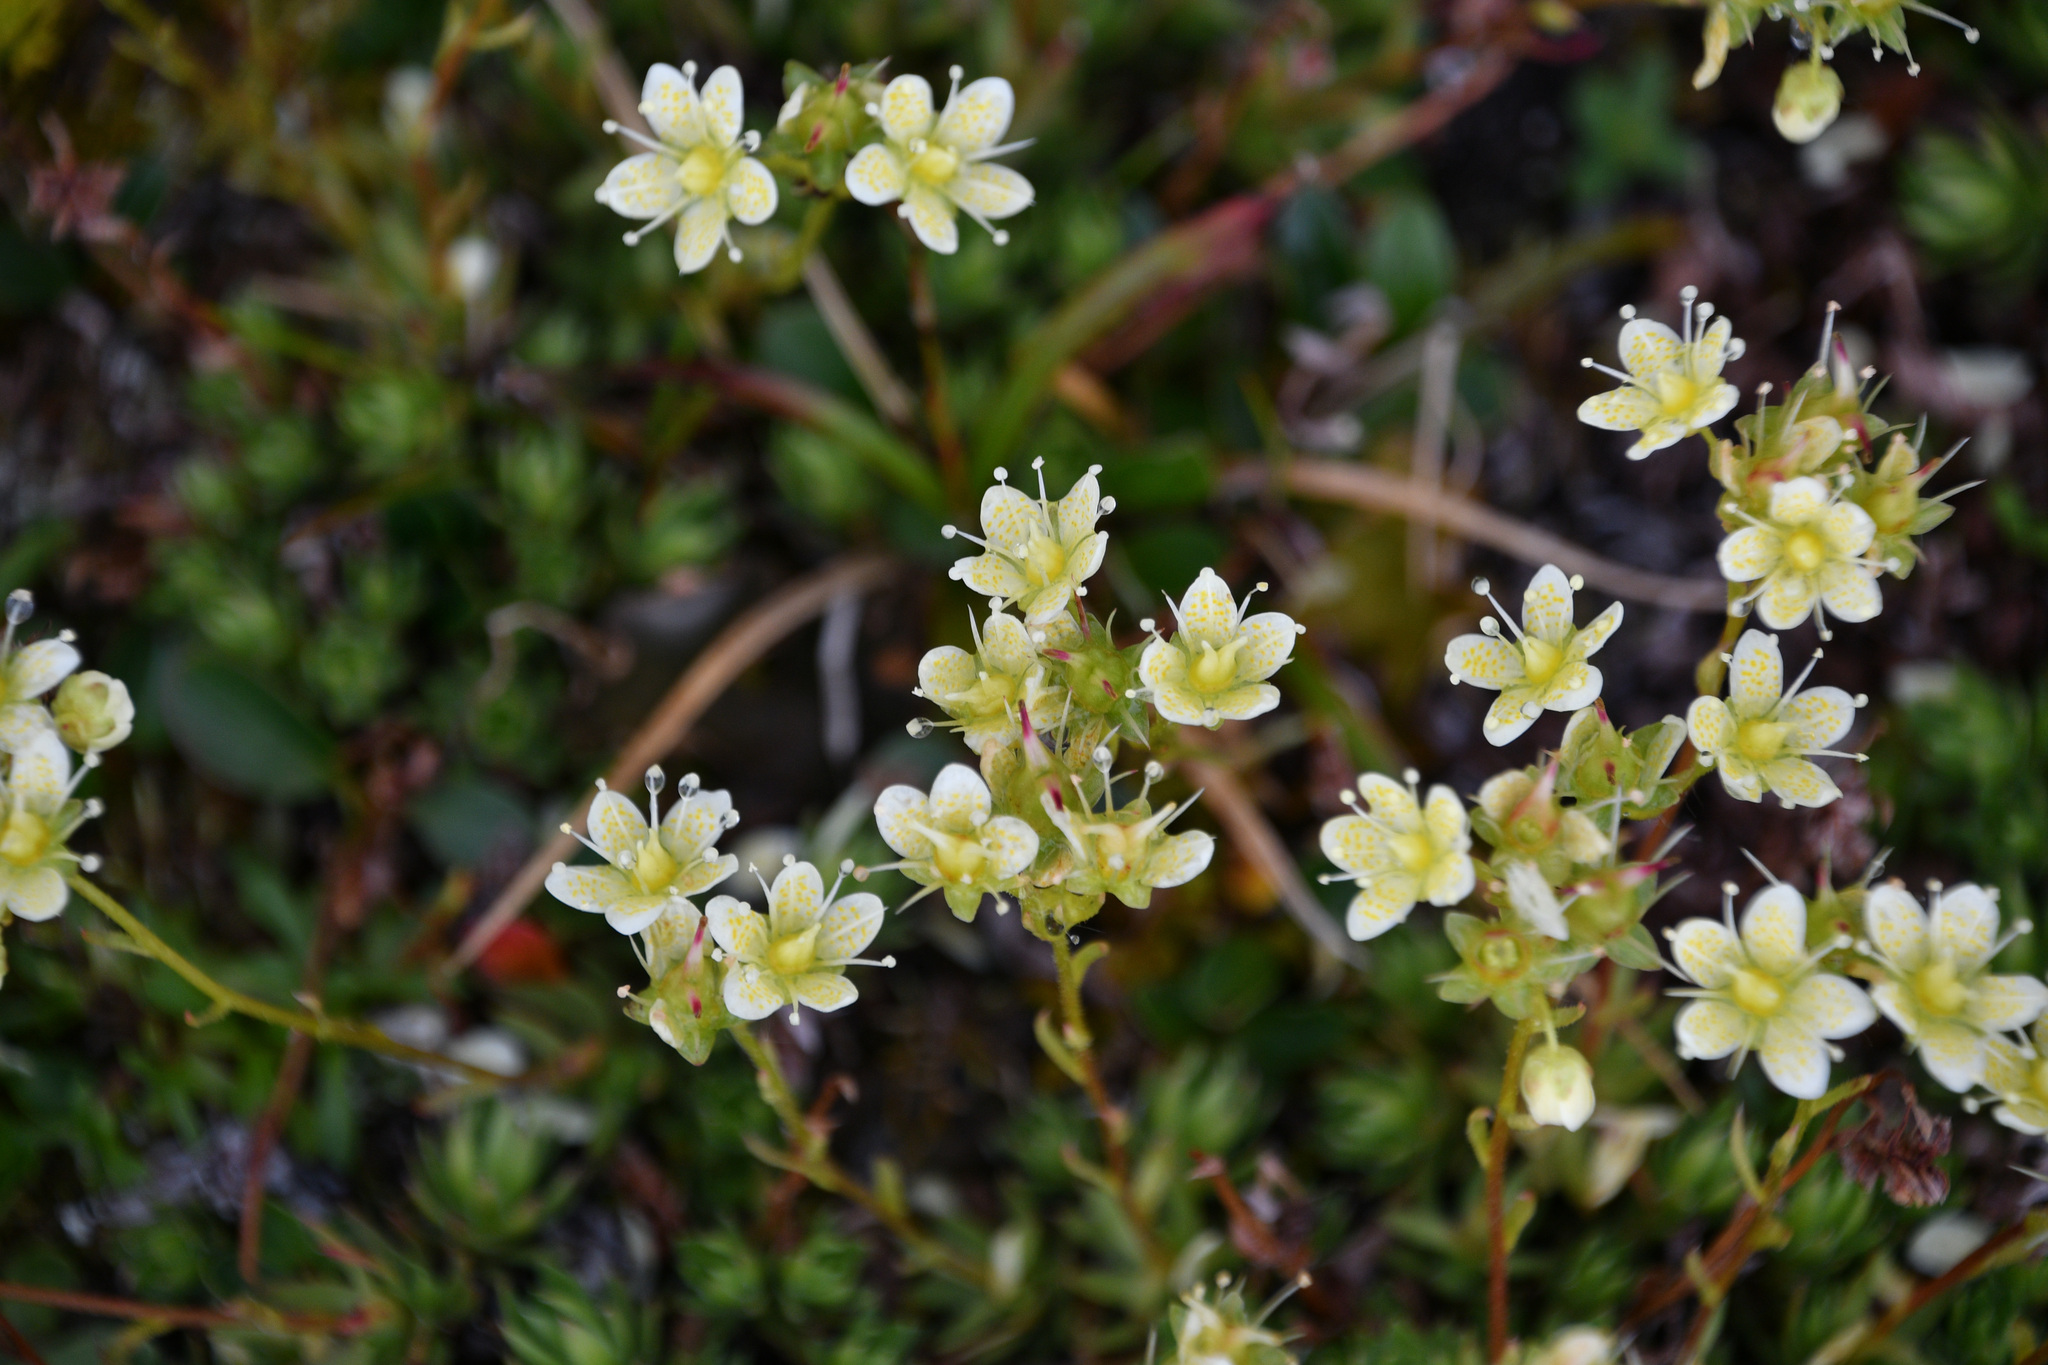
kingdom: Plantae
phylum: Tracheophyta
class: Magnoliopsida
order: Saxifragales
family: Saxifragaceae
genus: Saxifraga
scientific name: Saxifraga bronchialis
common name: Matted saxifrage
